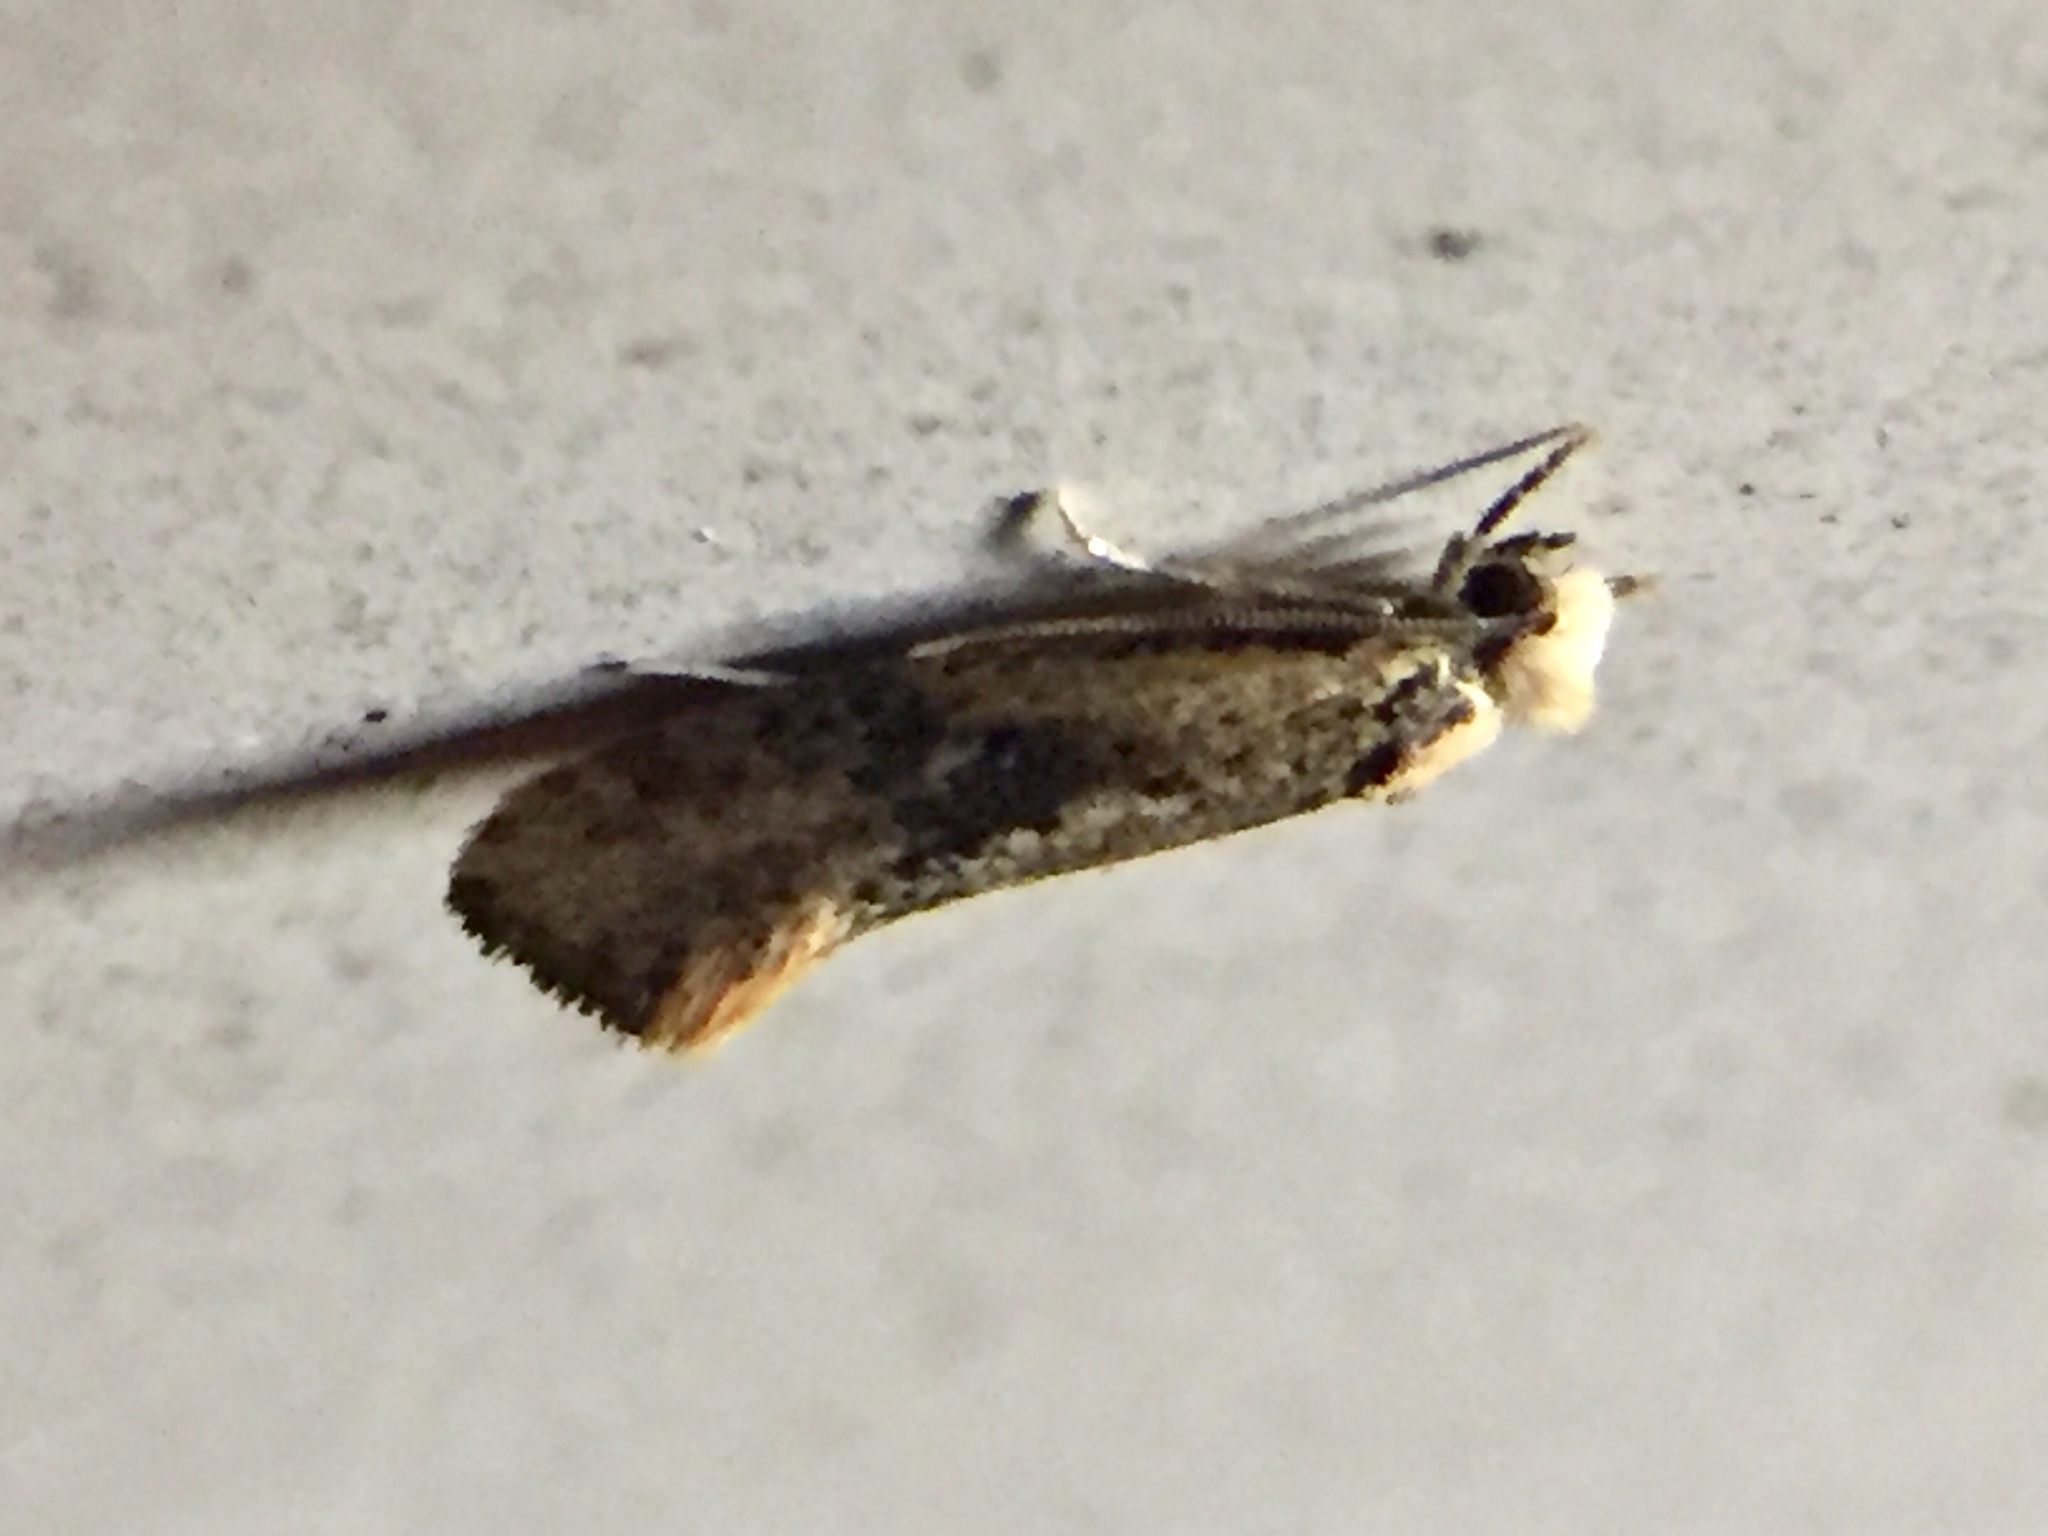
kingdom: Animalia
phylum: Arthropoda
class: Insecta
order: Lepidoptera
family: Tineidae
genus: Monopis
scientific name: Monopis argillacea
